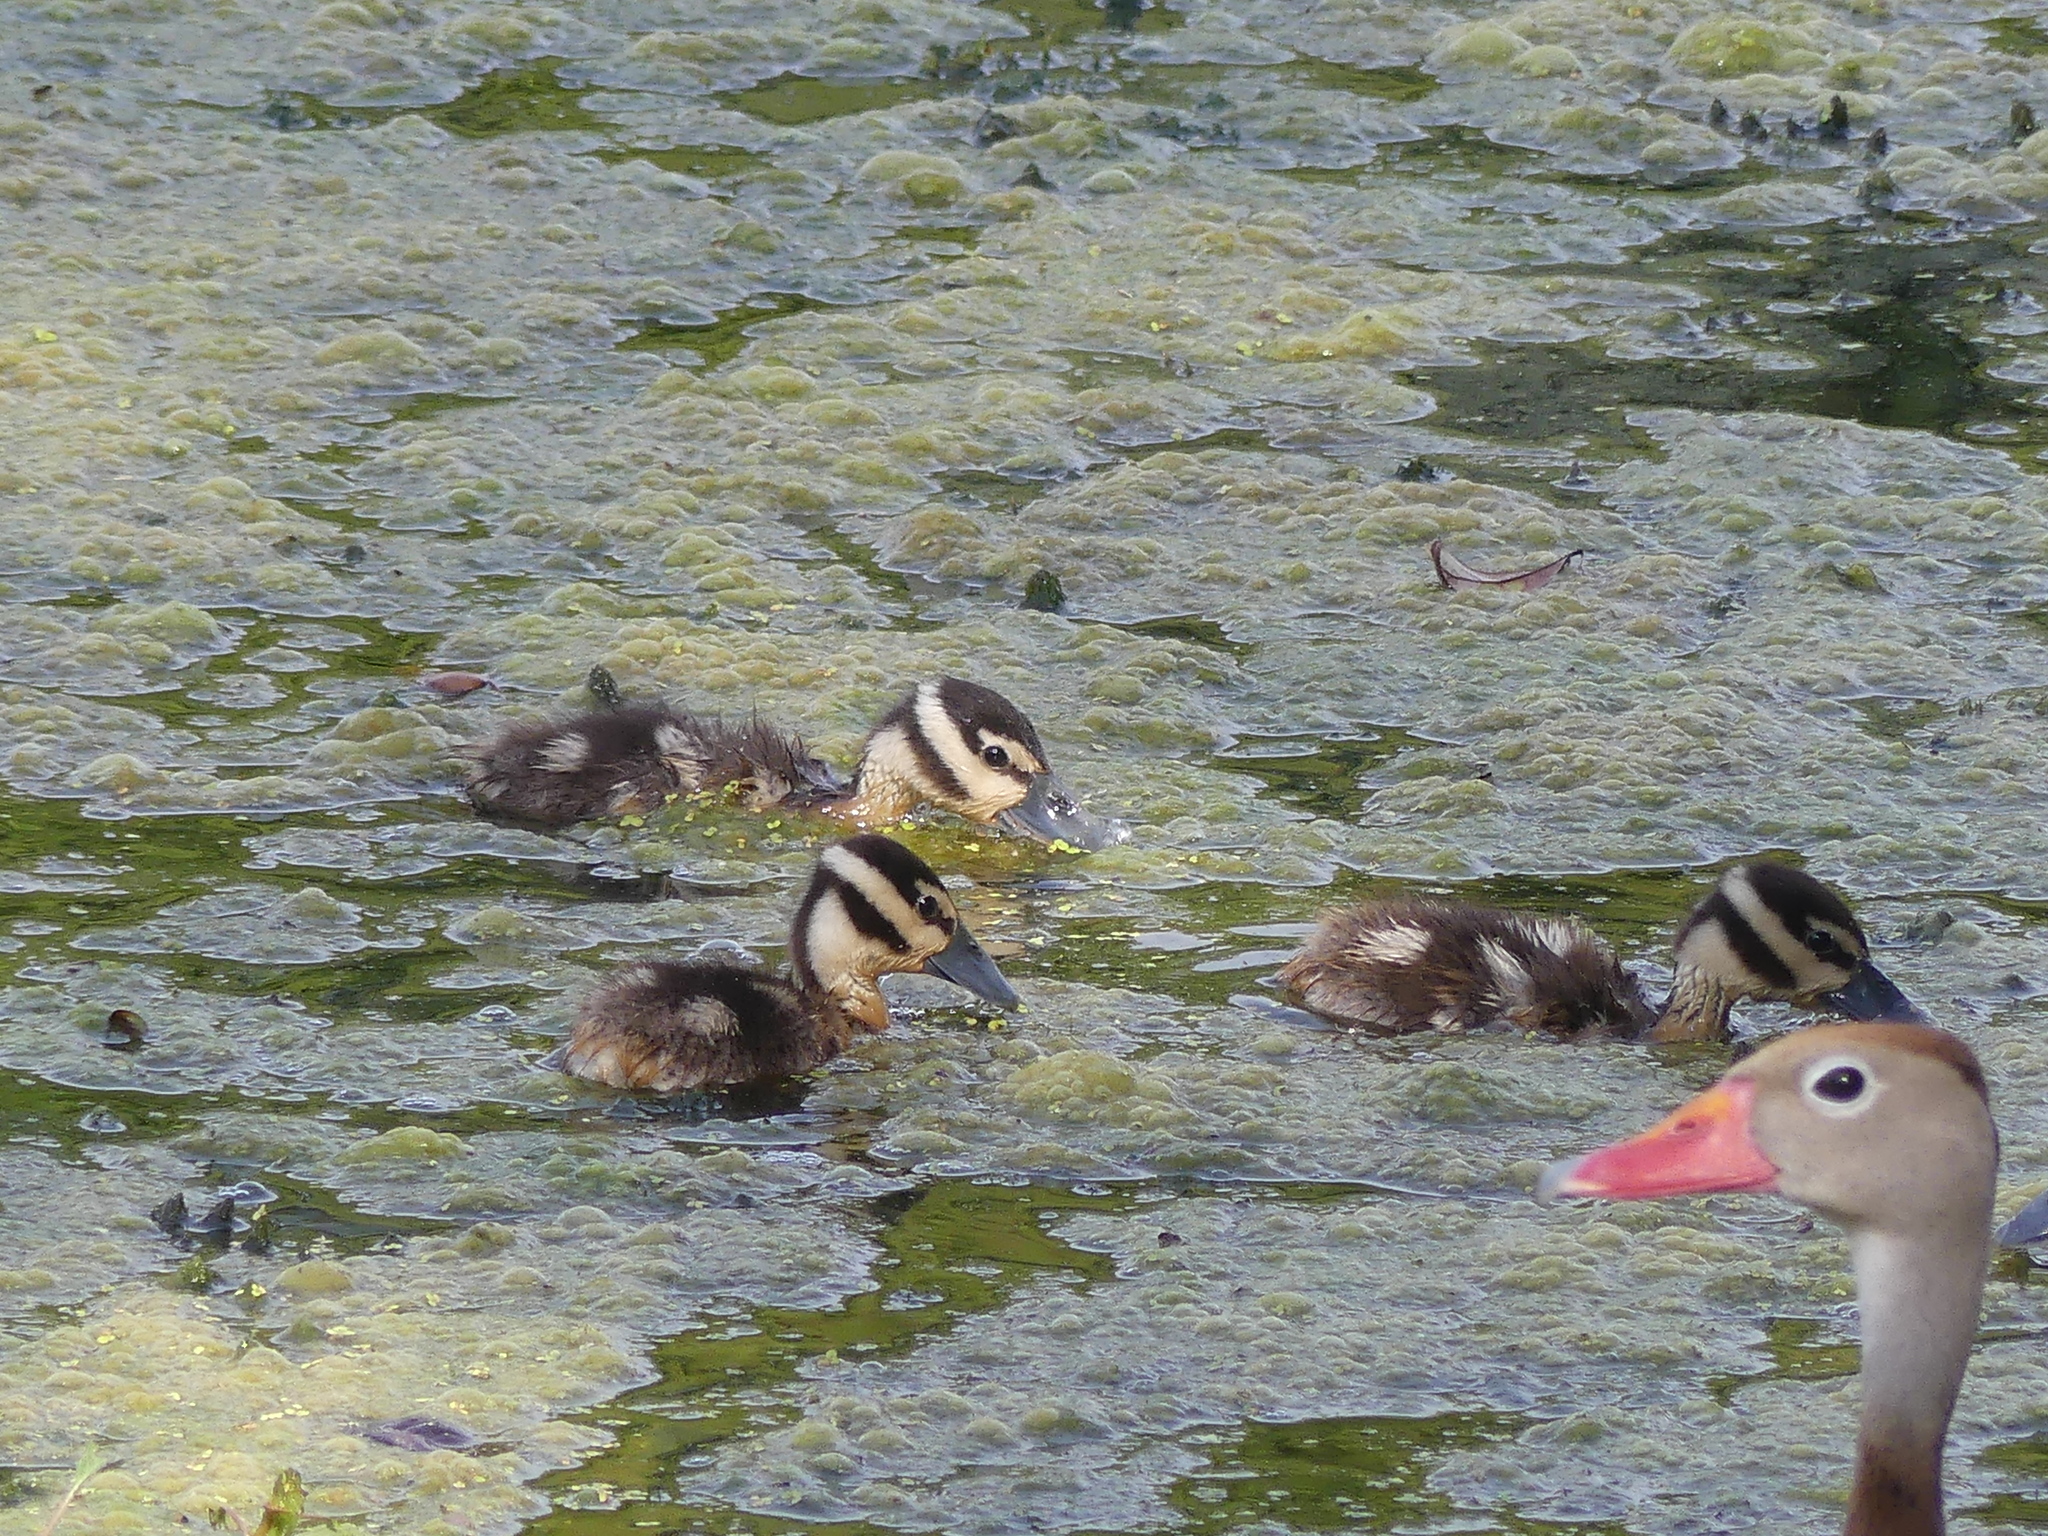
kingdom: Animalia
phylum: Chordata
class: Aves
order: Anseriformes
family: Anatidae
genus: Dendrocygna
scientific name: Dendrocygna autumnalis
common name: Black-bellied whistling duck
